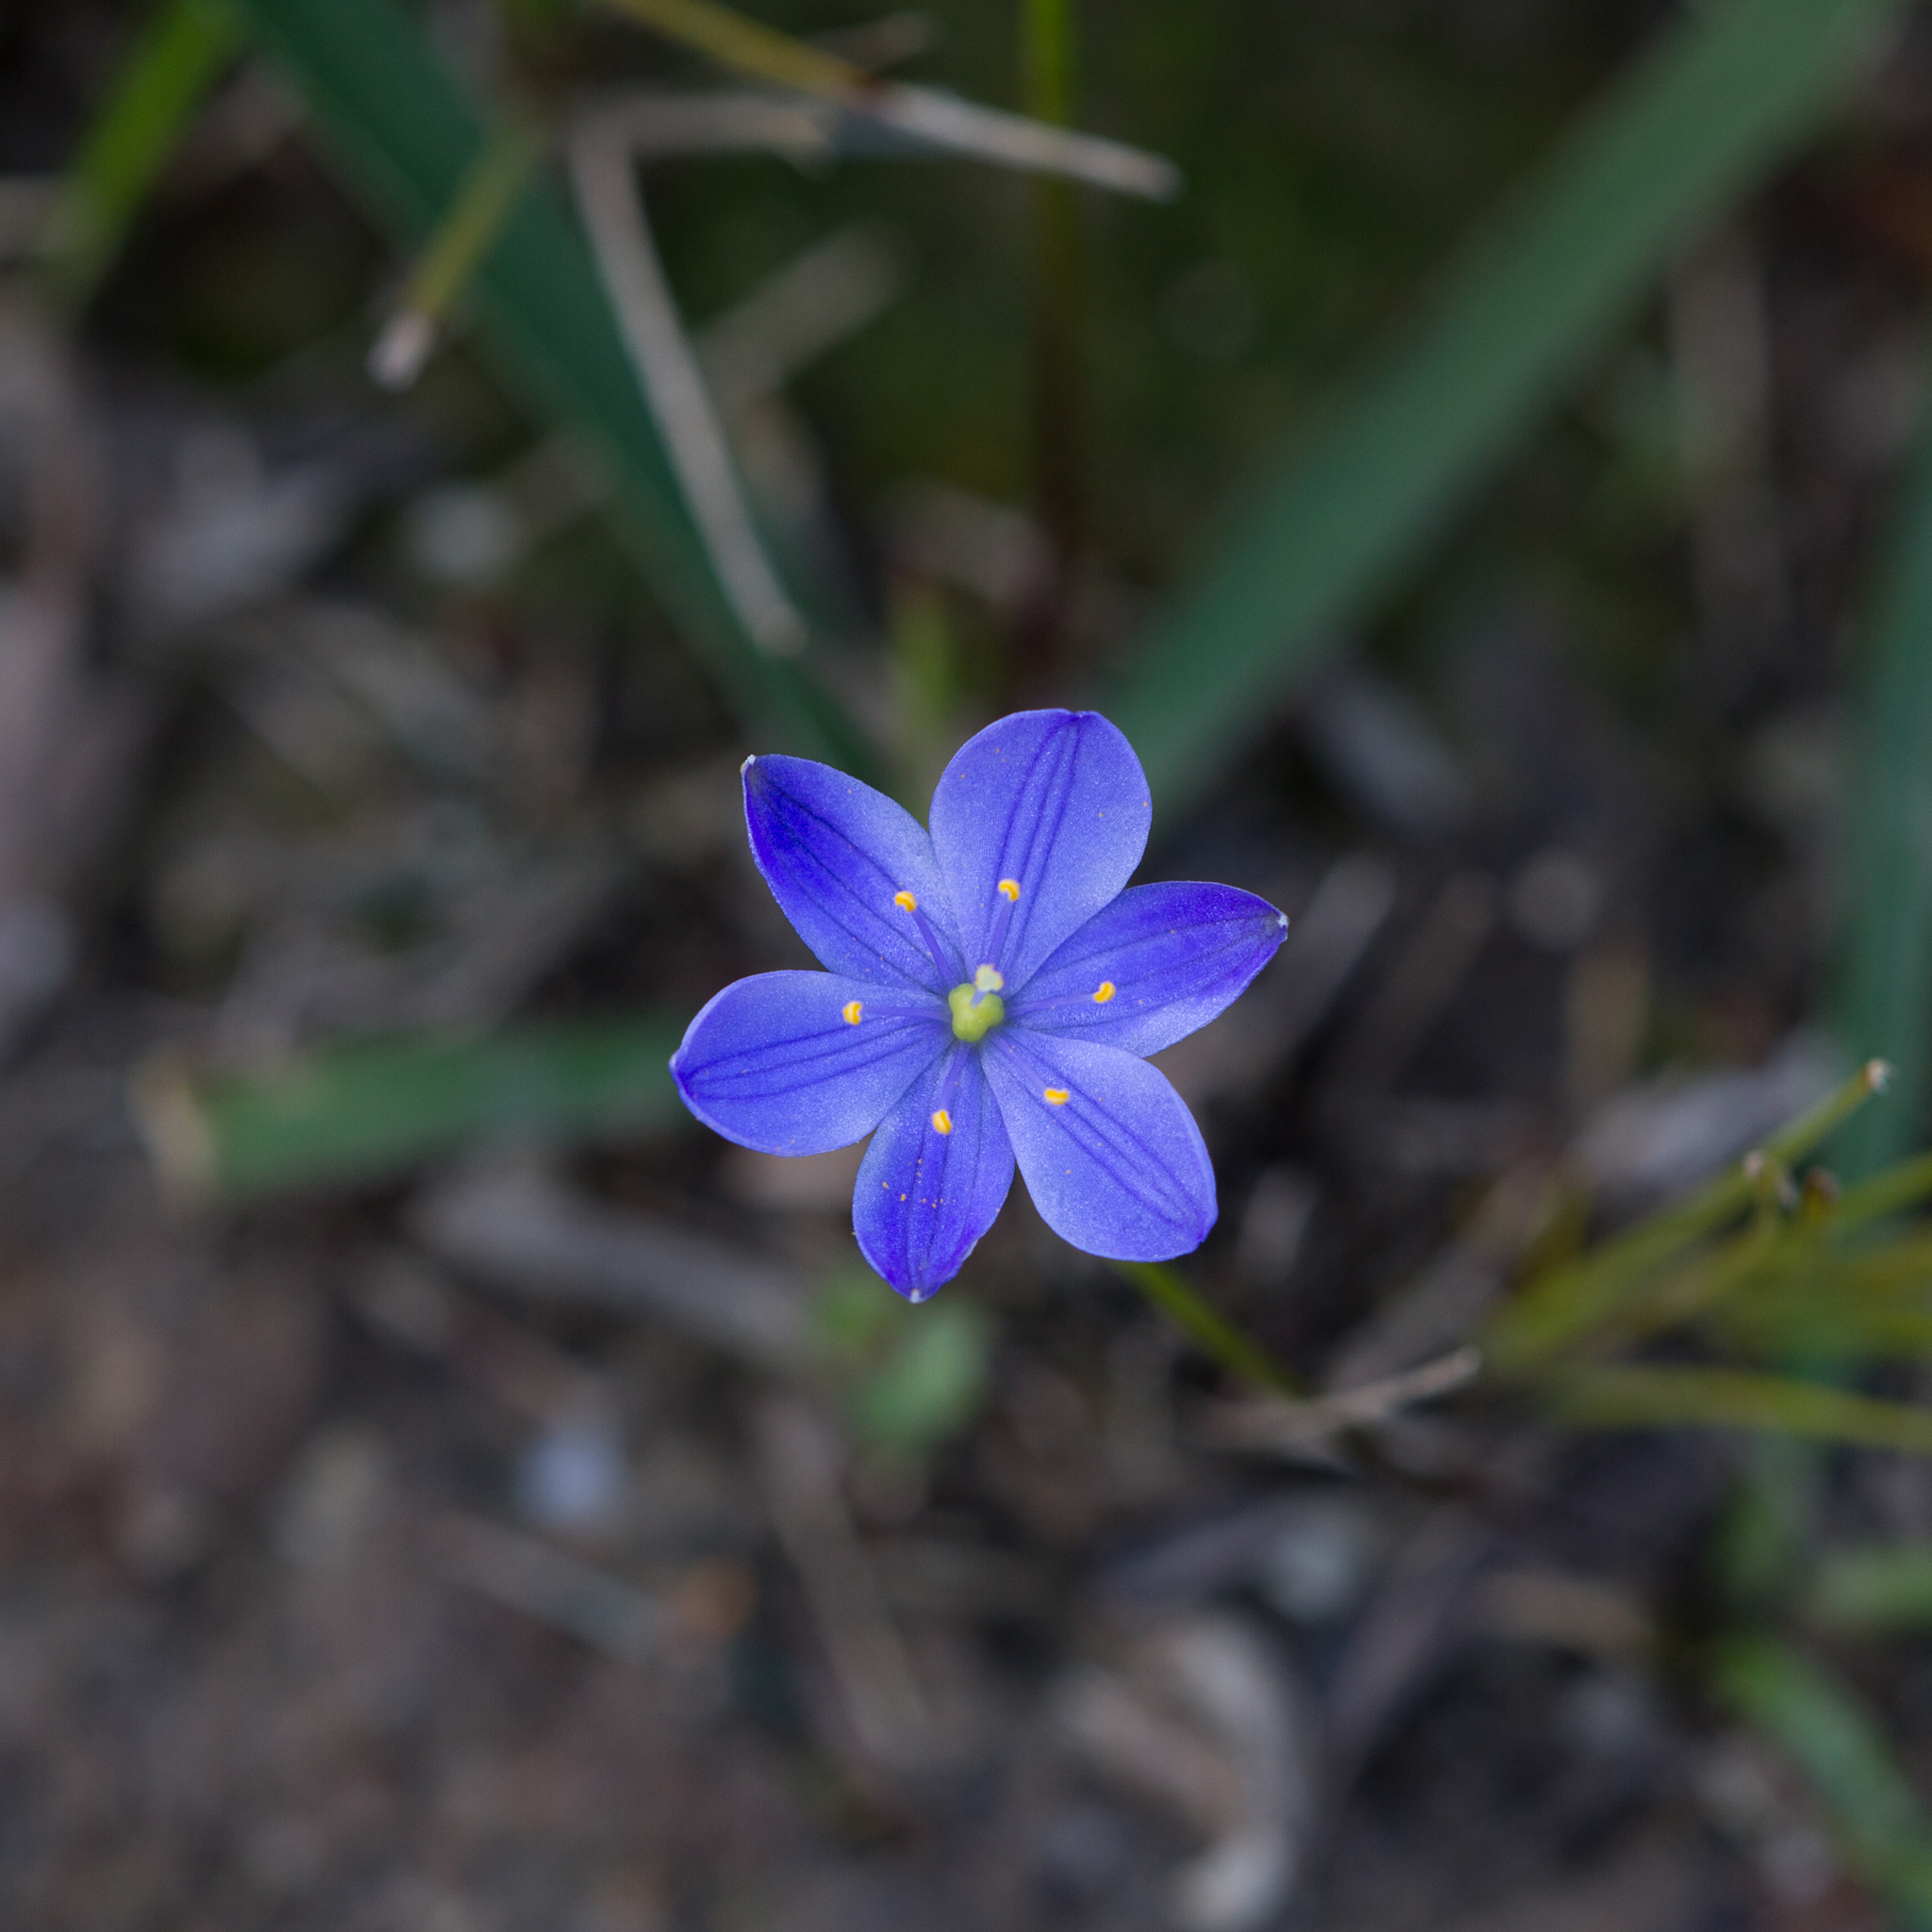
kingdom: Plantae
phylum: Tracheophyta
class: Liliopsida
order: Asparagales
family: Asphodelaceae
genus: Chamaescilla
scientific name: Chamaescilla corymbosa
